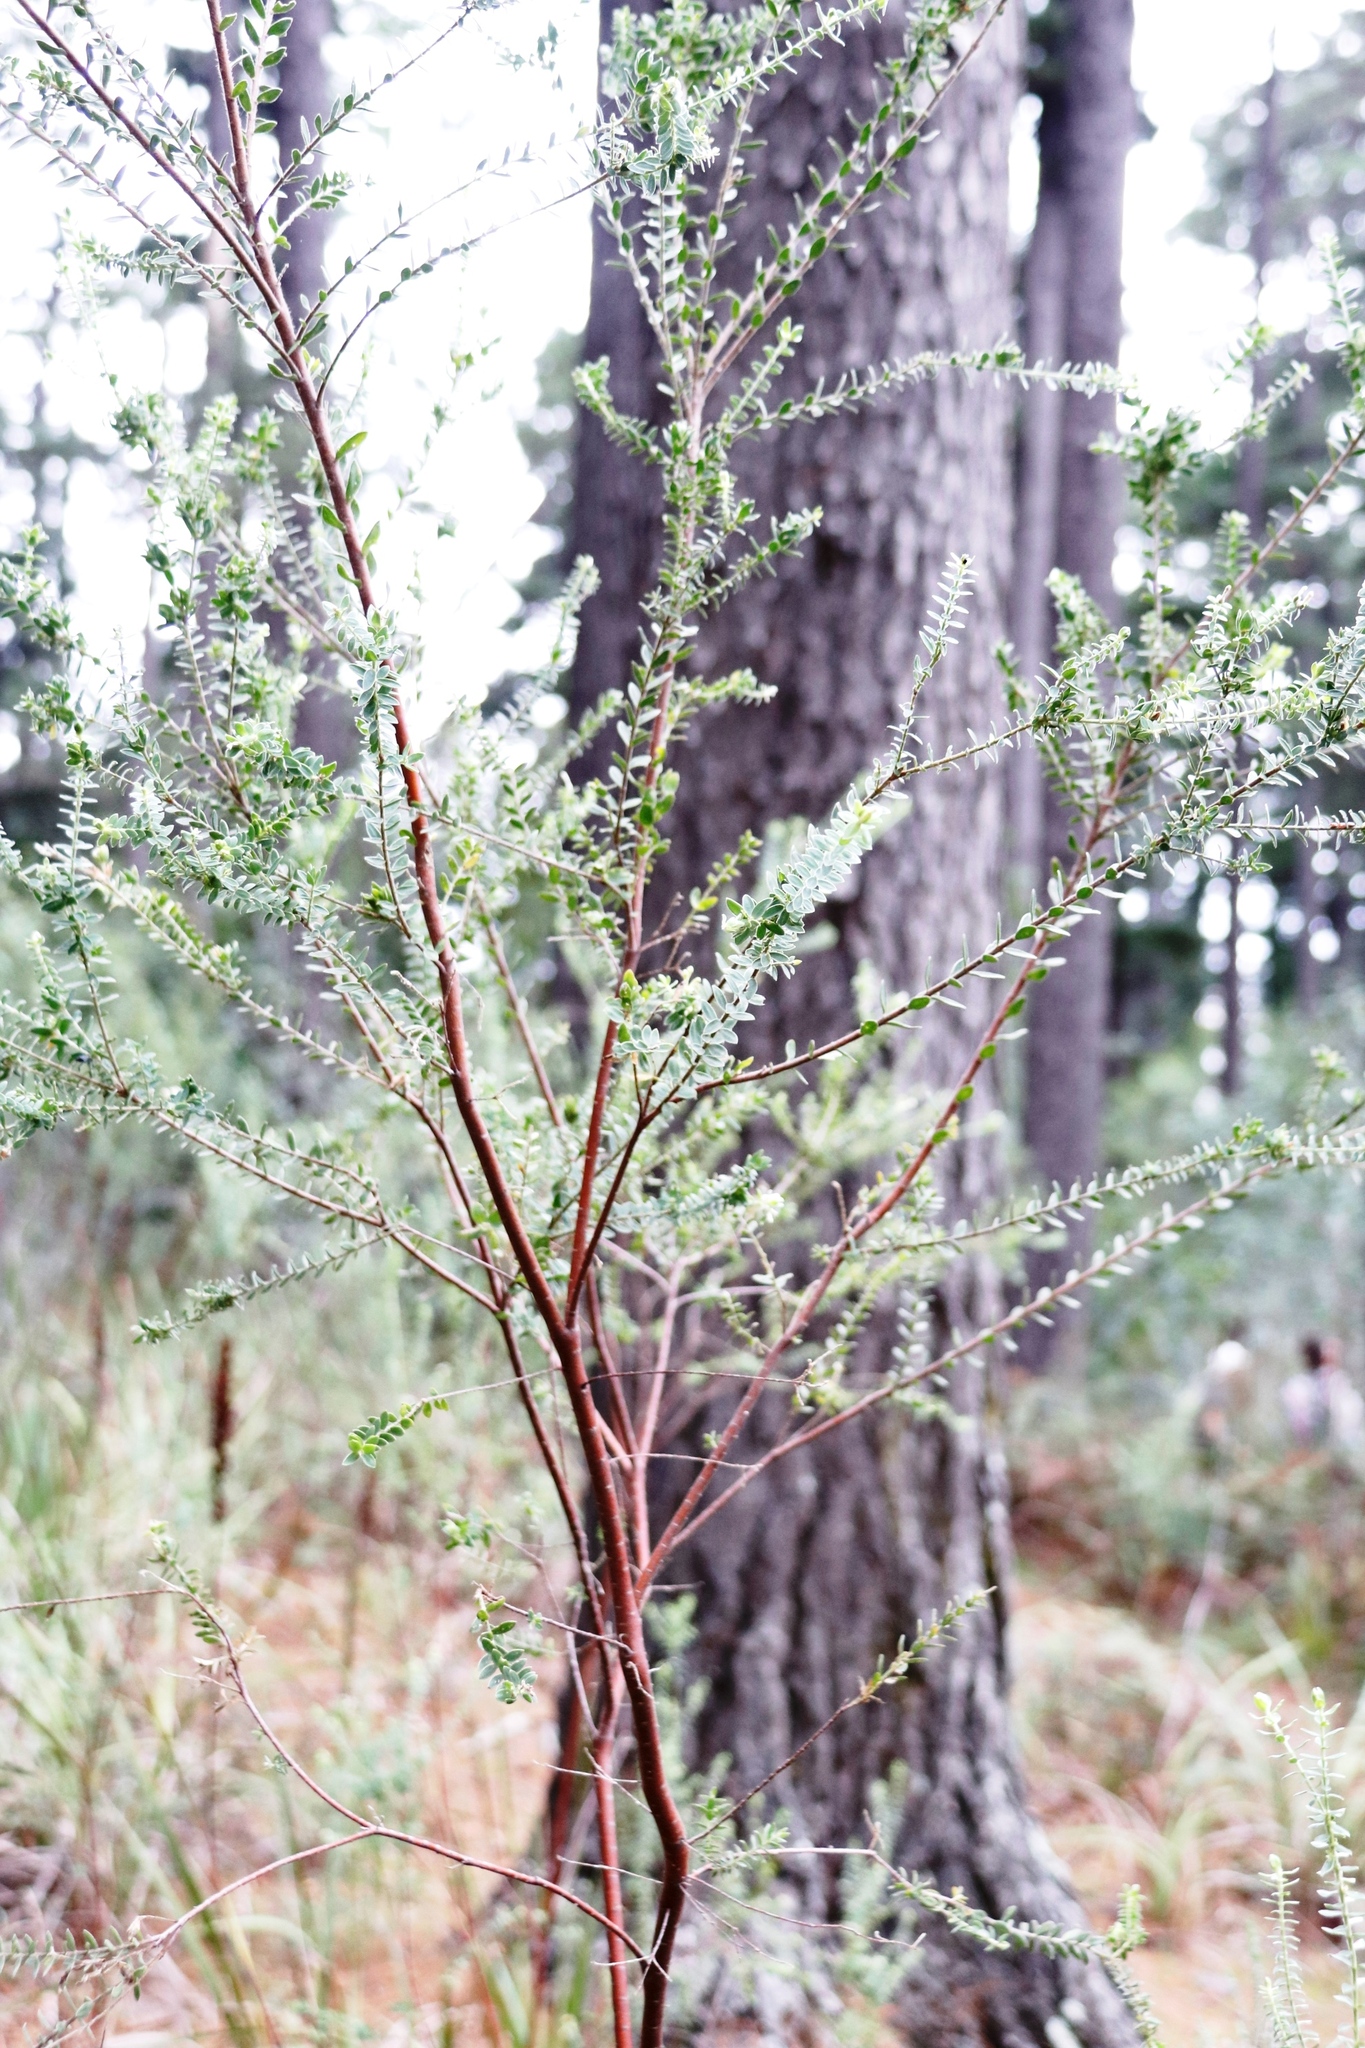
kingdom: Plantae
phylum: Tracheophyta
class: Magnoliopsida
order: Malvales
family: Thymelaeaceae
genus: Gnidia
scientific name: Gnidia sericea
